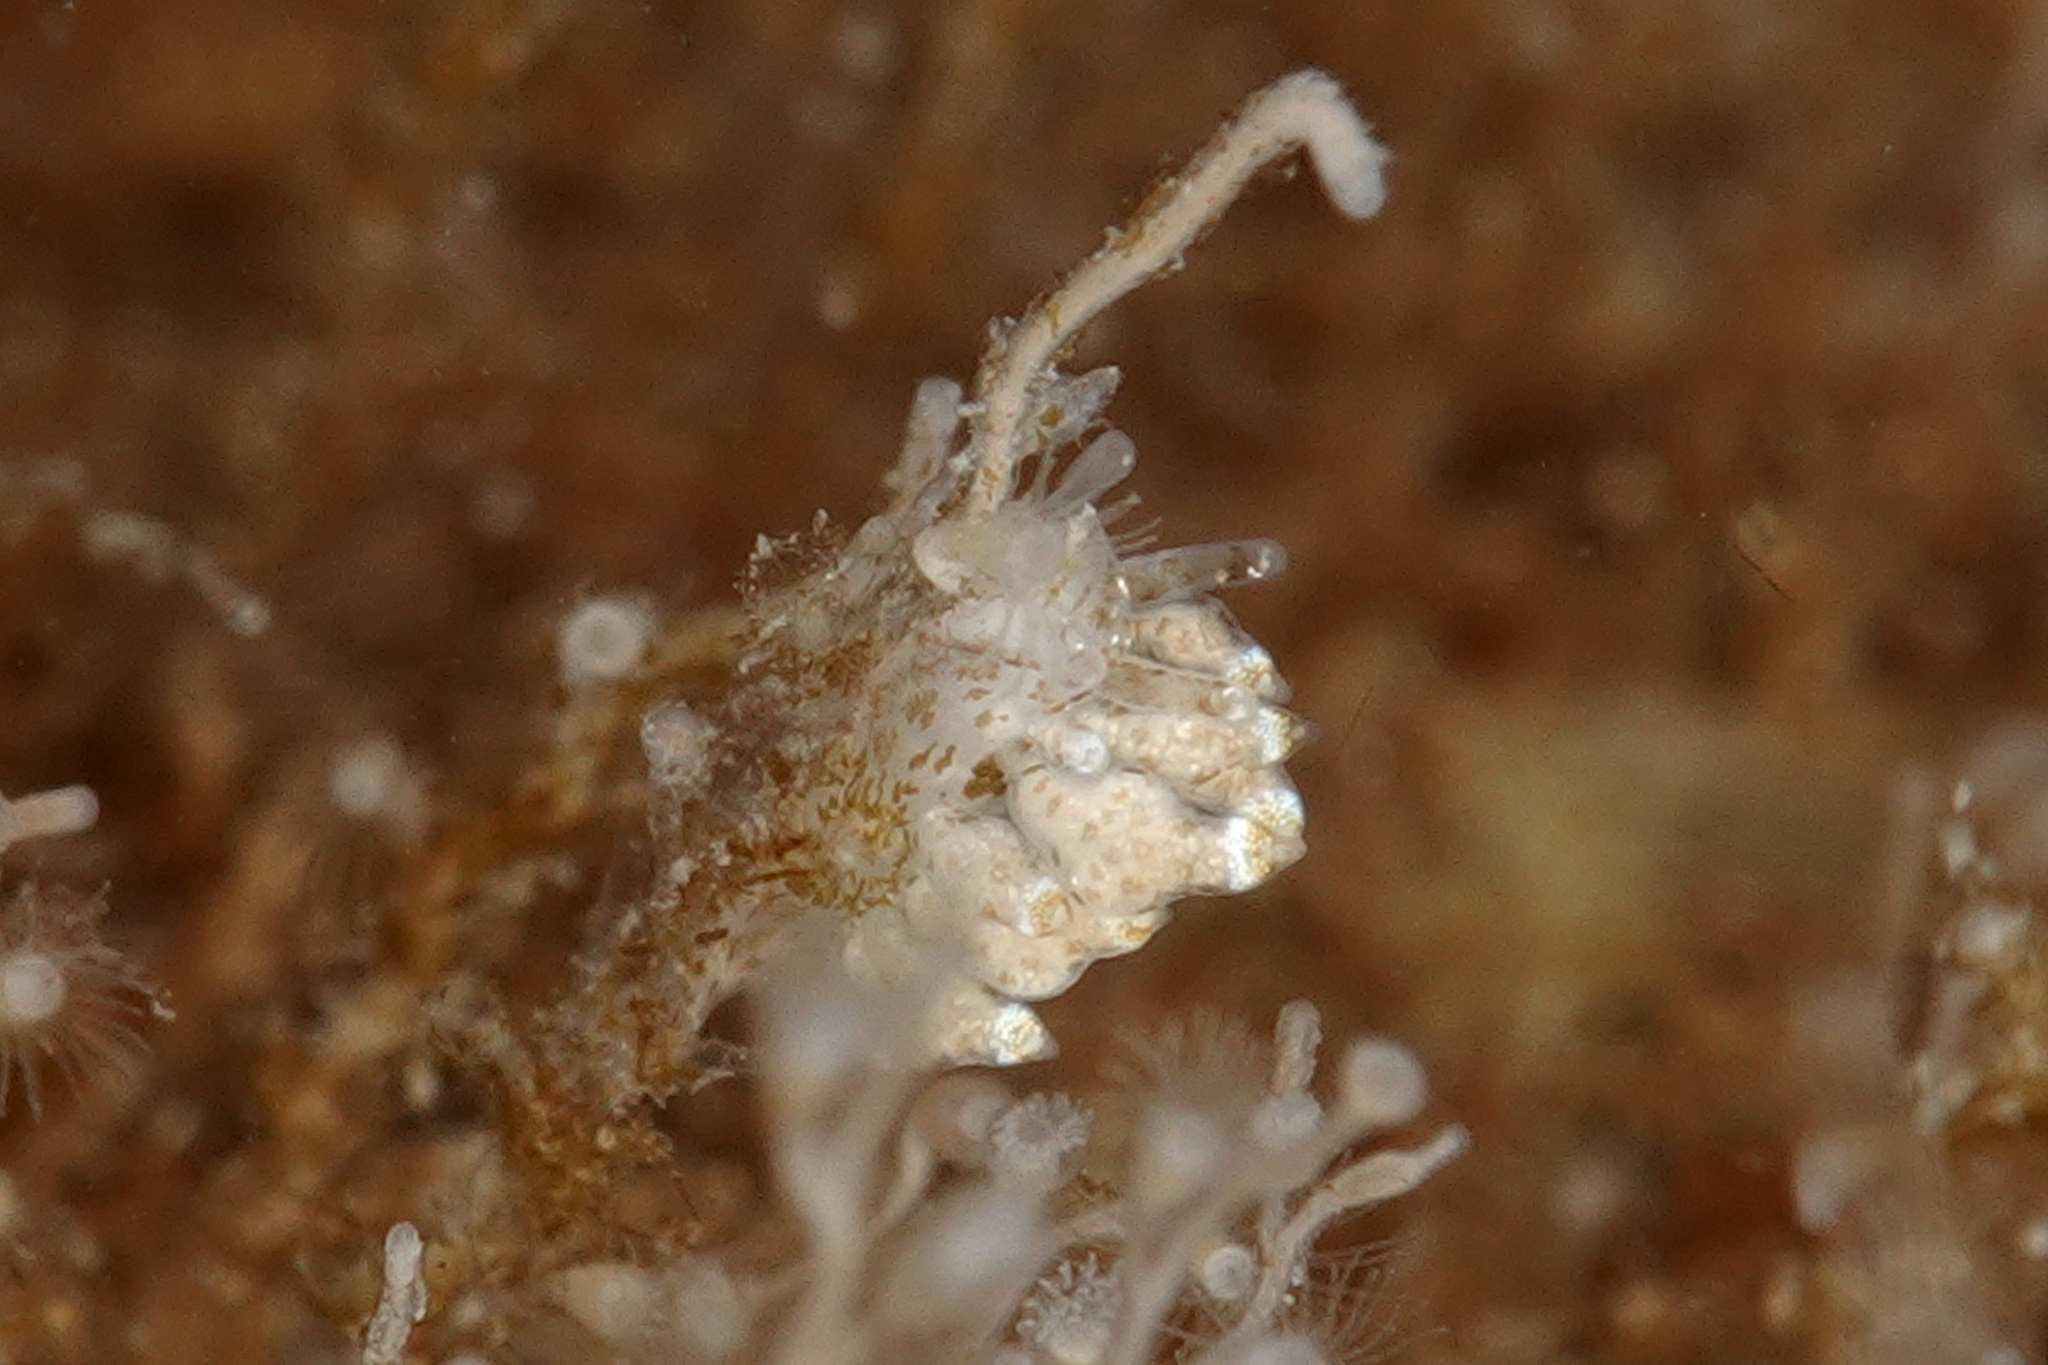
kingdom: Animalia
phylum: Mollusca
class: Gastropoda
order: Nudibranchia
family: Eubranchidae
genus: Eubranchus
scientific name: Eubranchus scintillans
